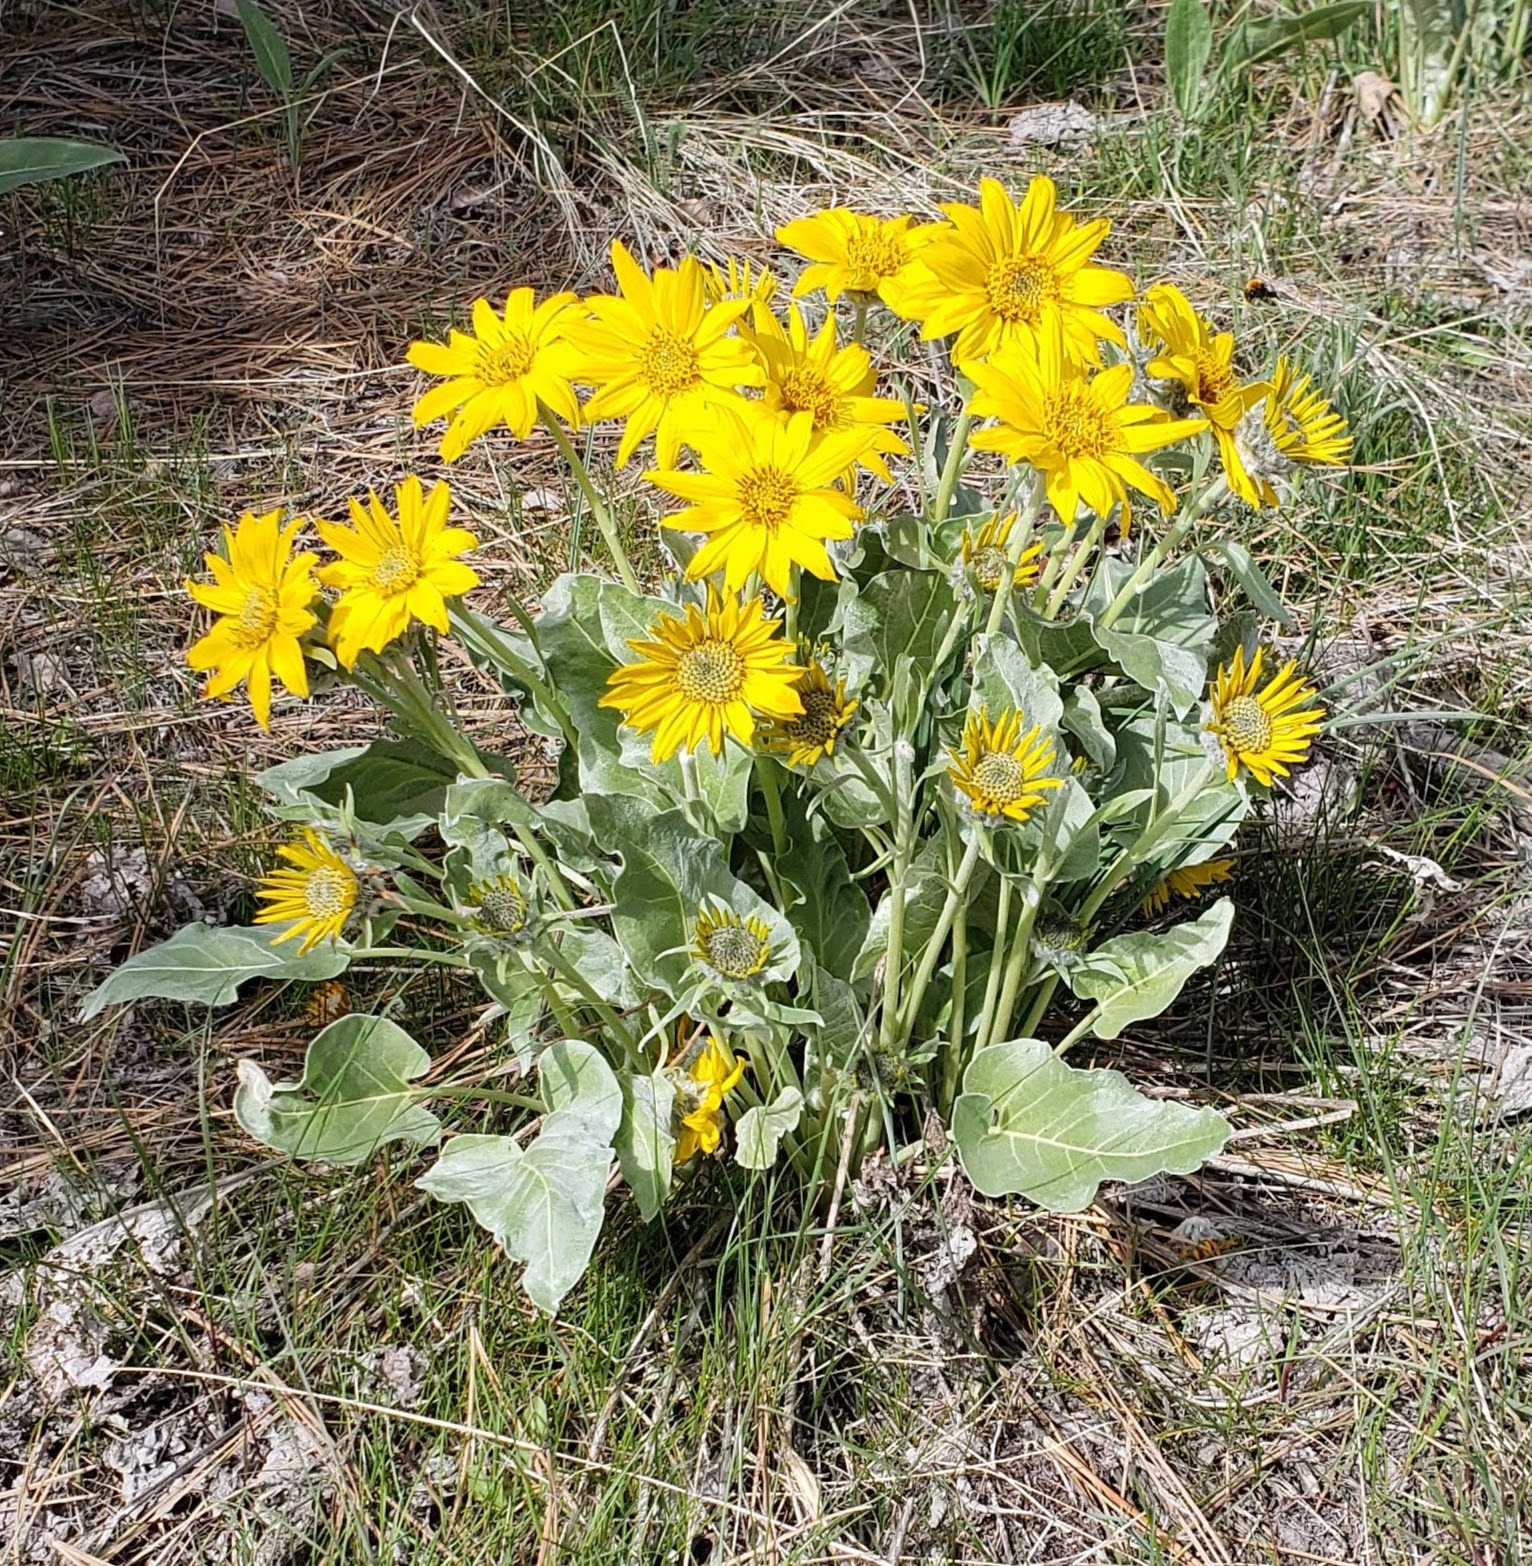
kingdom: Plantae
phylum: Tracheophyta
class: Magnoliopsida
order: Asterales
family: Asteraceae
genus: Wyethia
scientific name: Wyethia sagittata
